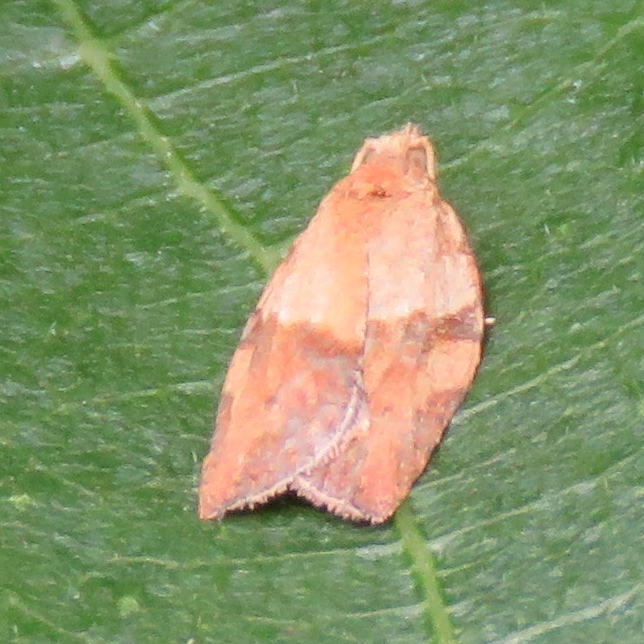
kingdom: Animalia
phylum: Arthropoda
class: Insecta
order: Lepidoptera
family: Tortricidae
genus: Epiphyas
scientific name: Epiphyas postvittana
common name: Light brown apple moth
